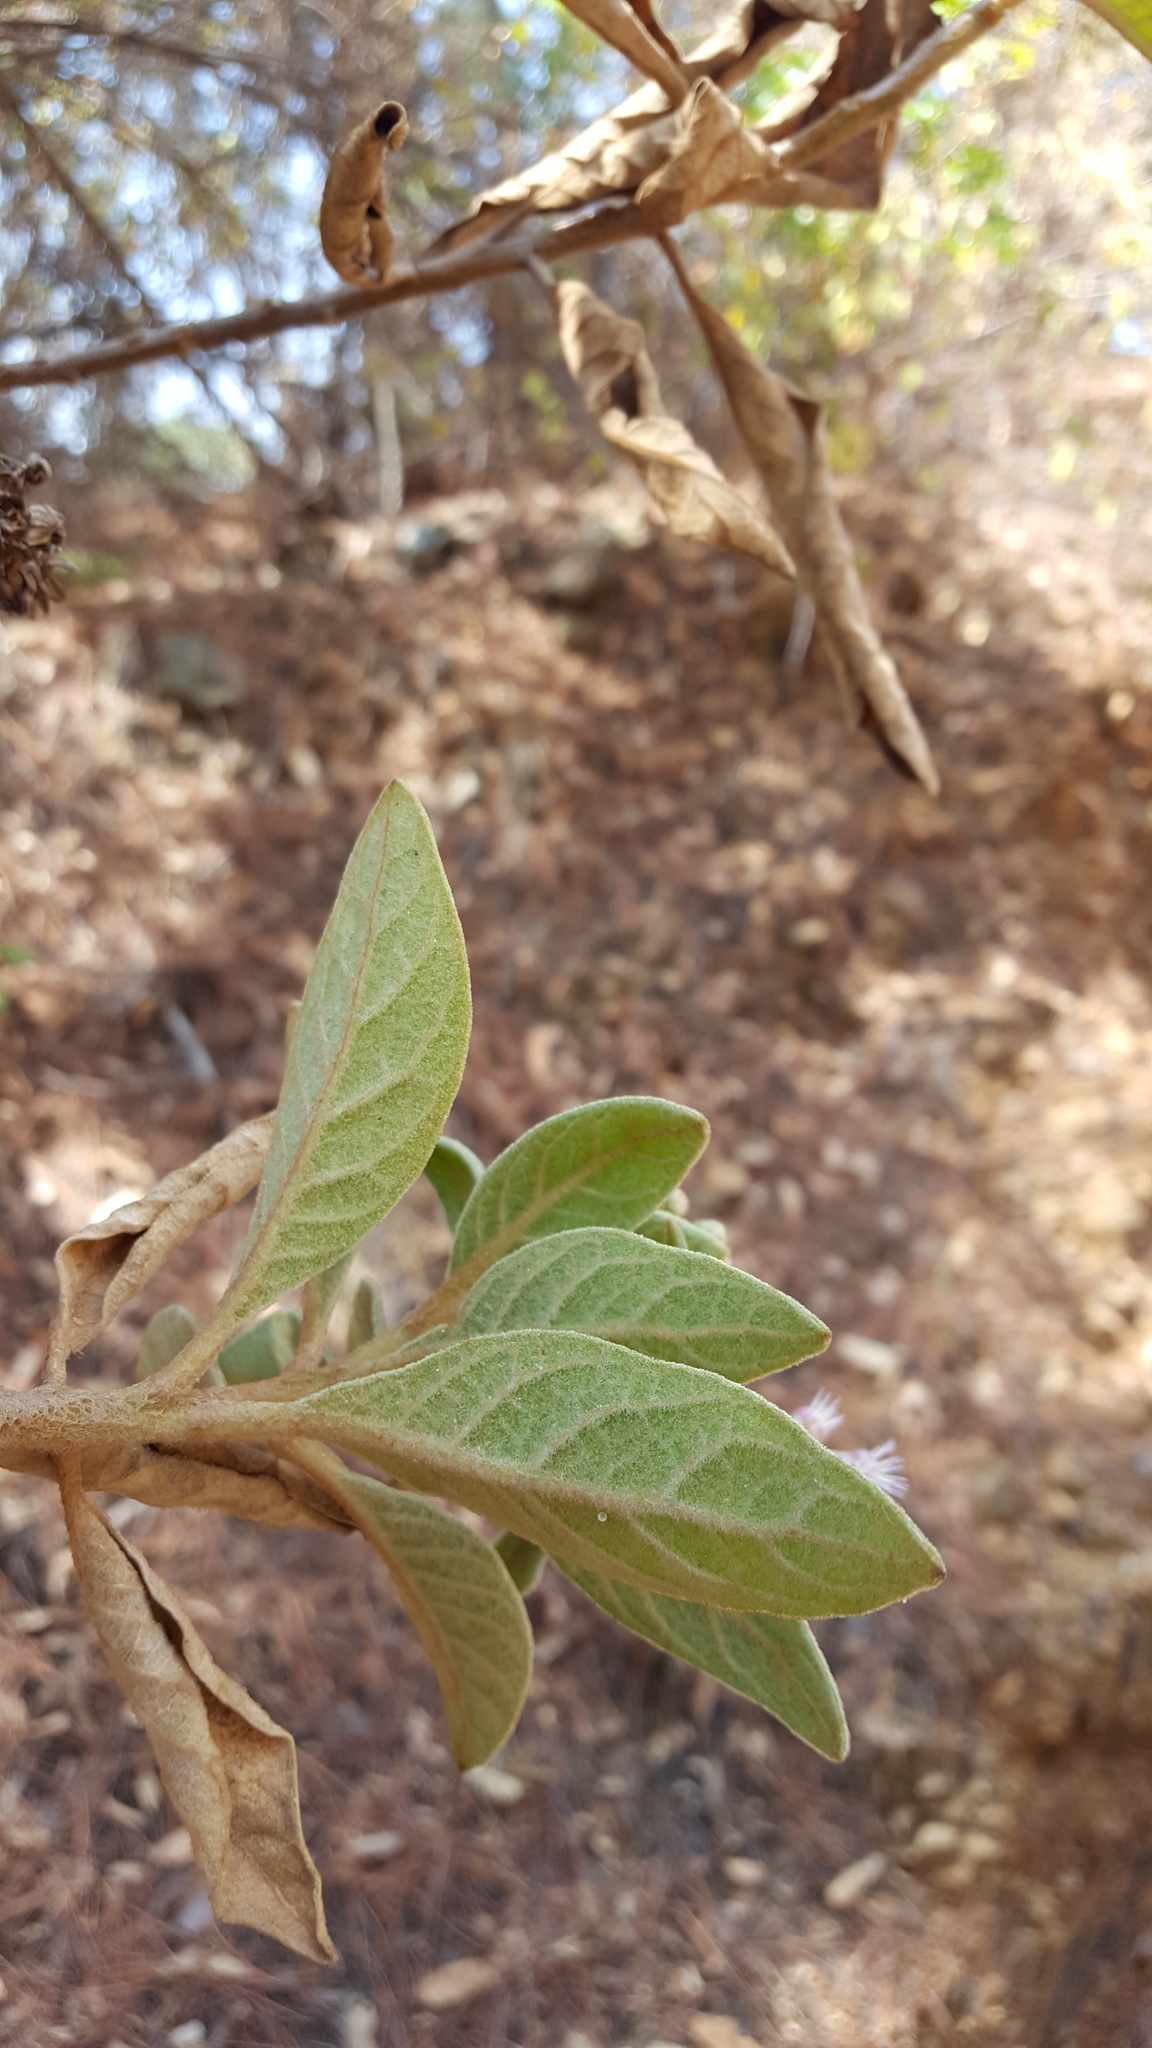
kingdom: Plantae
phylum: Tracheophyta
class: Magnoliopsida
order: Asterales
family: Asteraceae
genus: Pluchea
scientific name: Pluchea carolinensis
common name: Marsh fleabane
